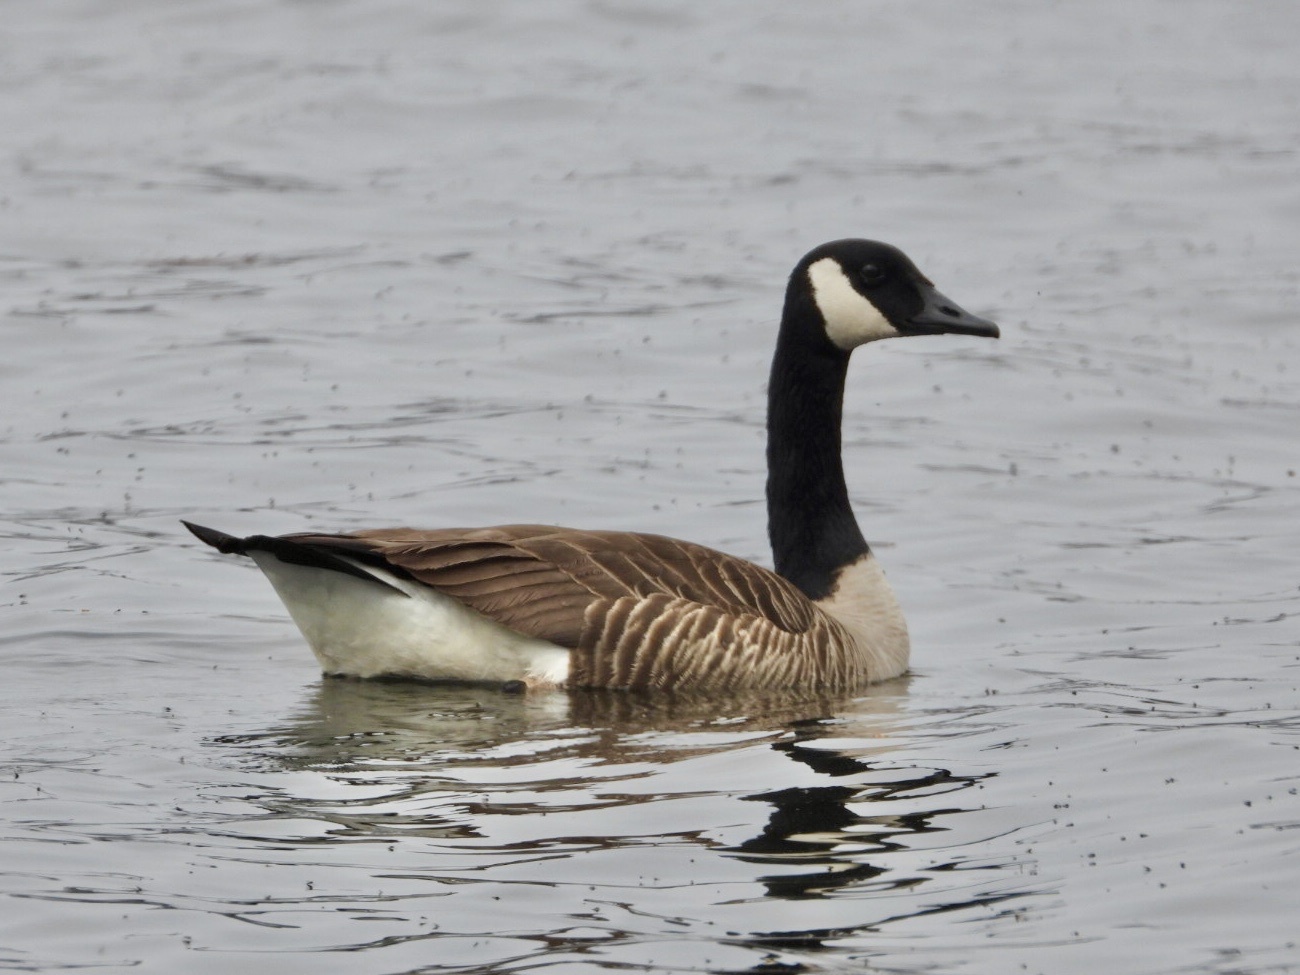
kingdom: Animalia
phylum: Chordata
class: Aves
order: Anseriformes
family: Anatidae
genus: Branta
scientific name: Branta canadensis
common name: Canada goose
